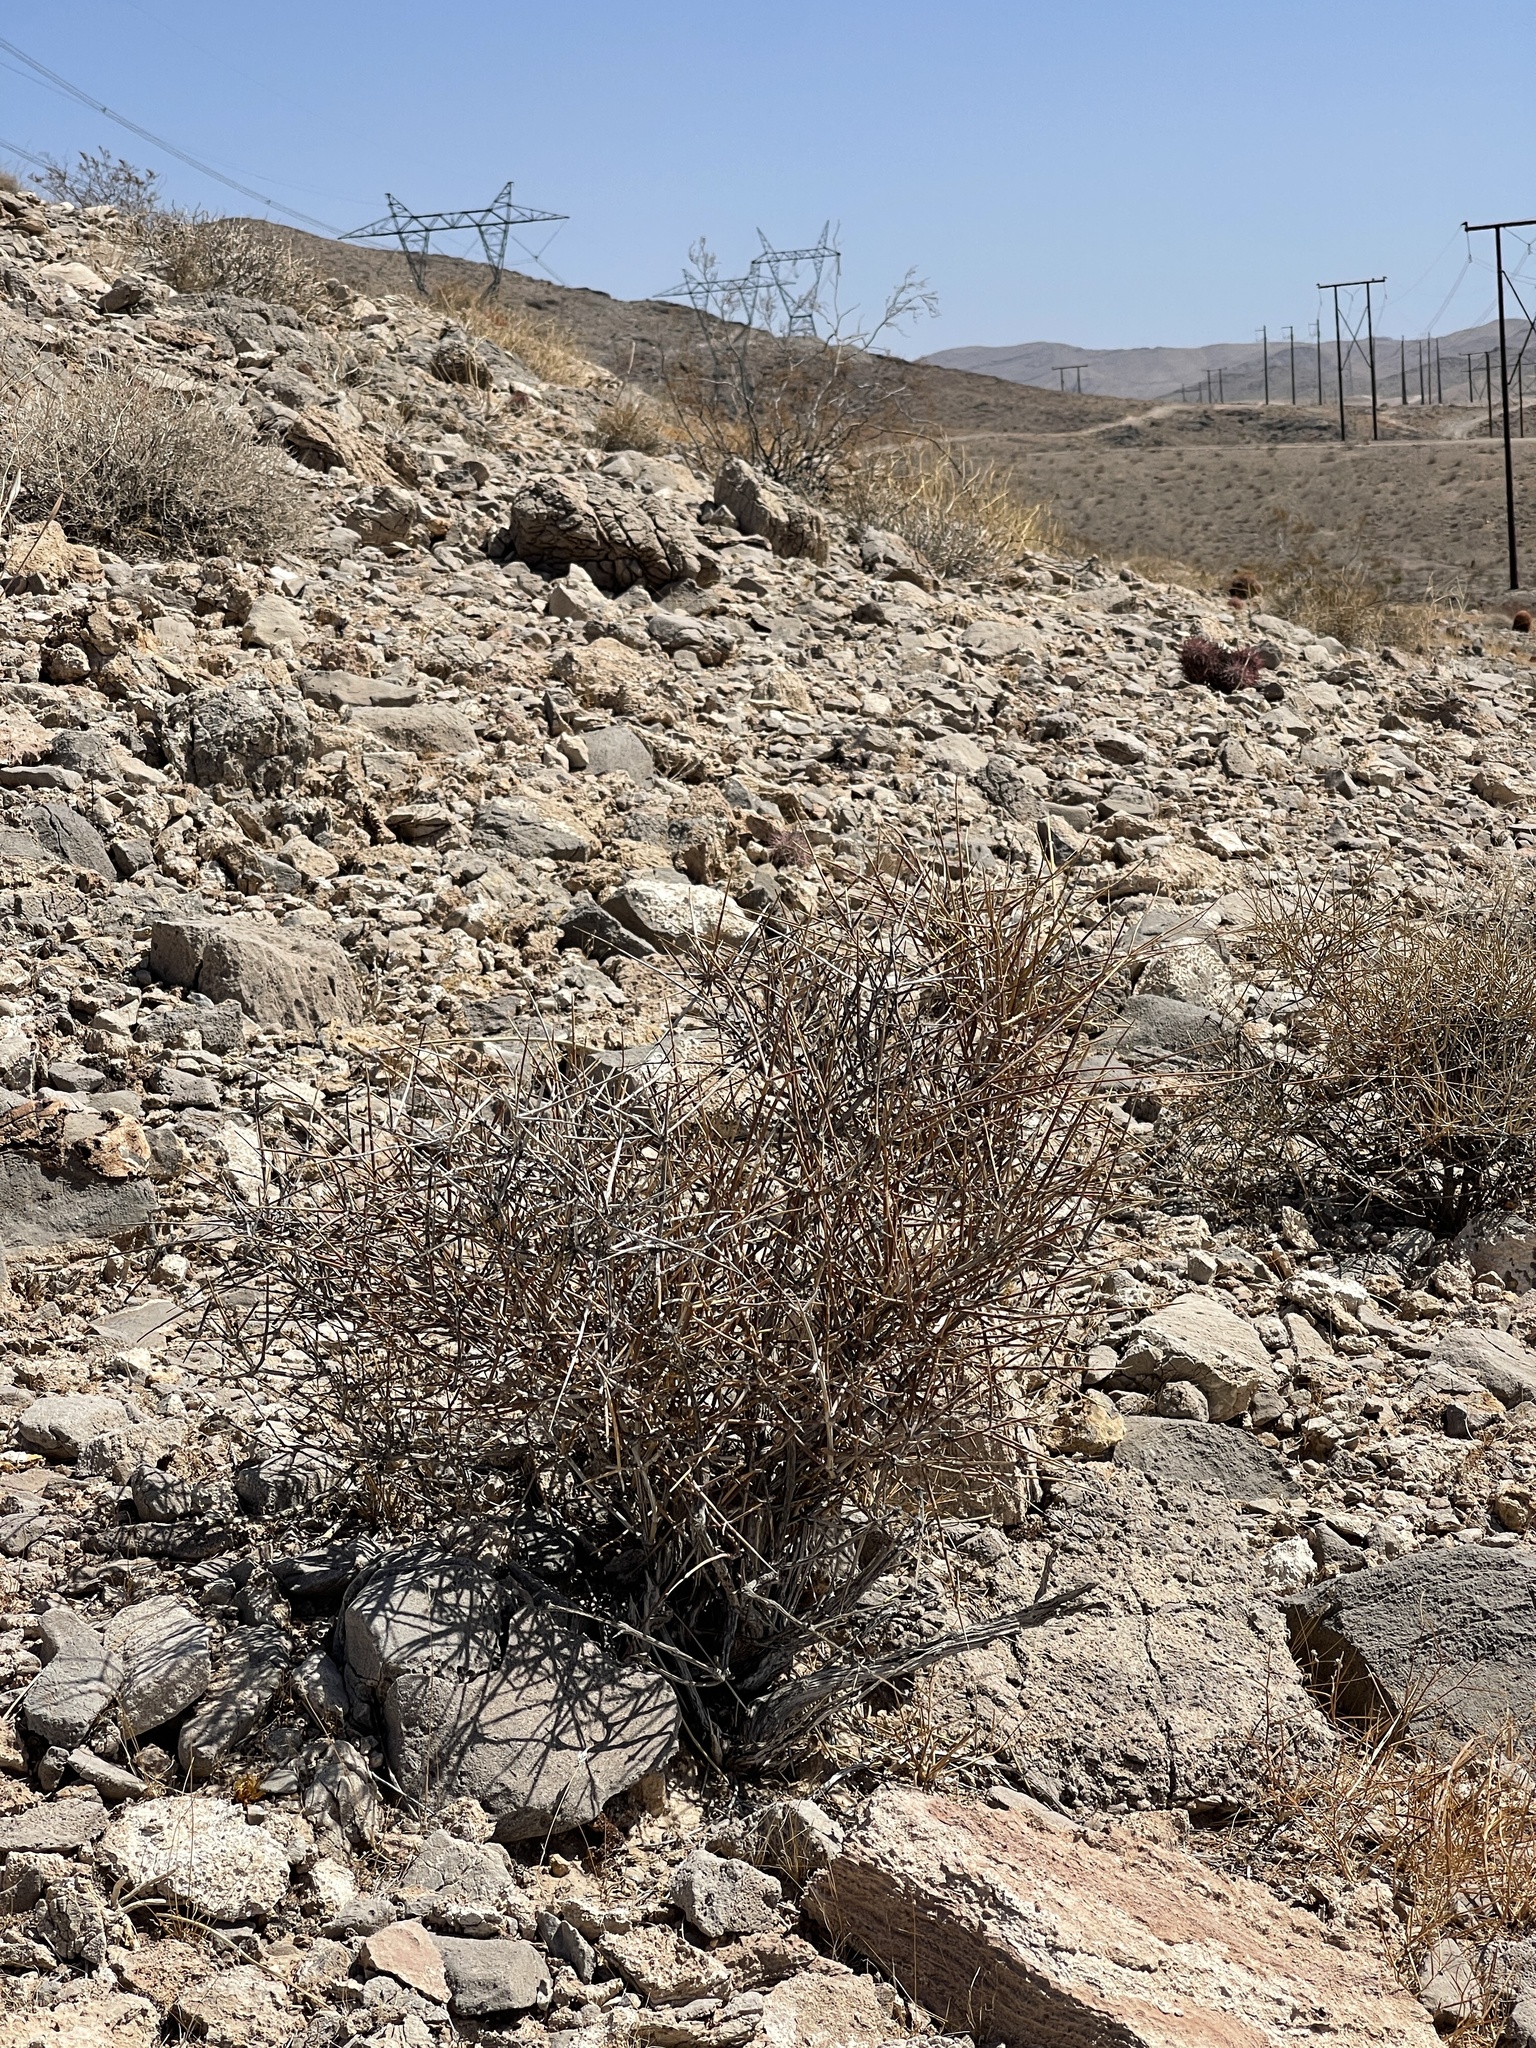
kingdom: Plantae
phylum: Tracheophyta
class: Magnoliopsida
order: Zygophyllales
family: Zygophyllaceae
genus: Larrea
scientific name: Larrea tridentata
